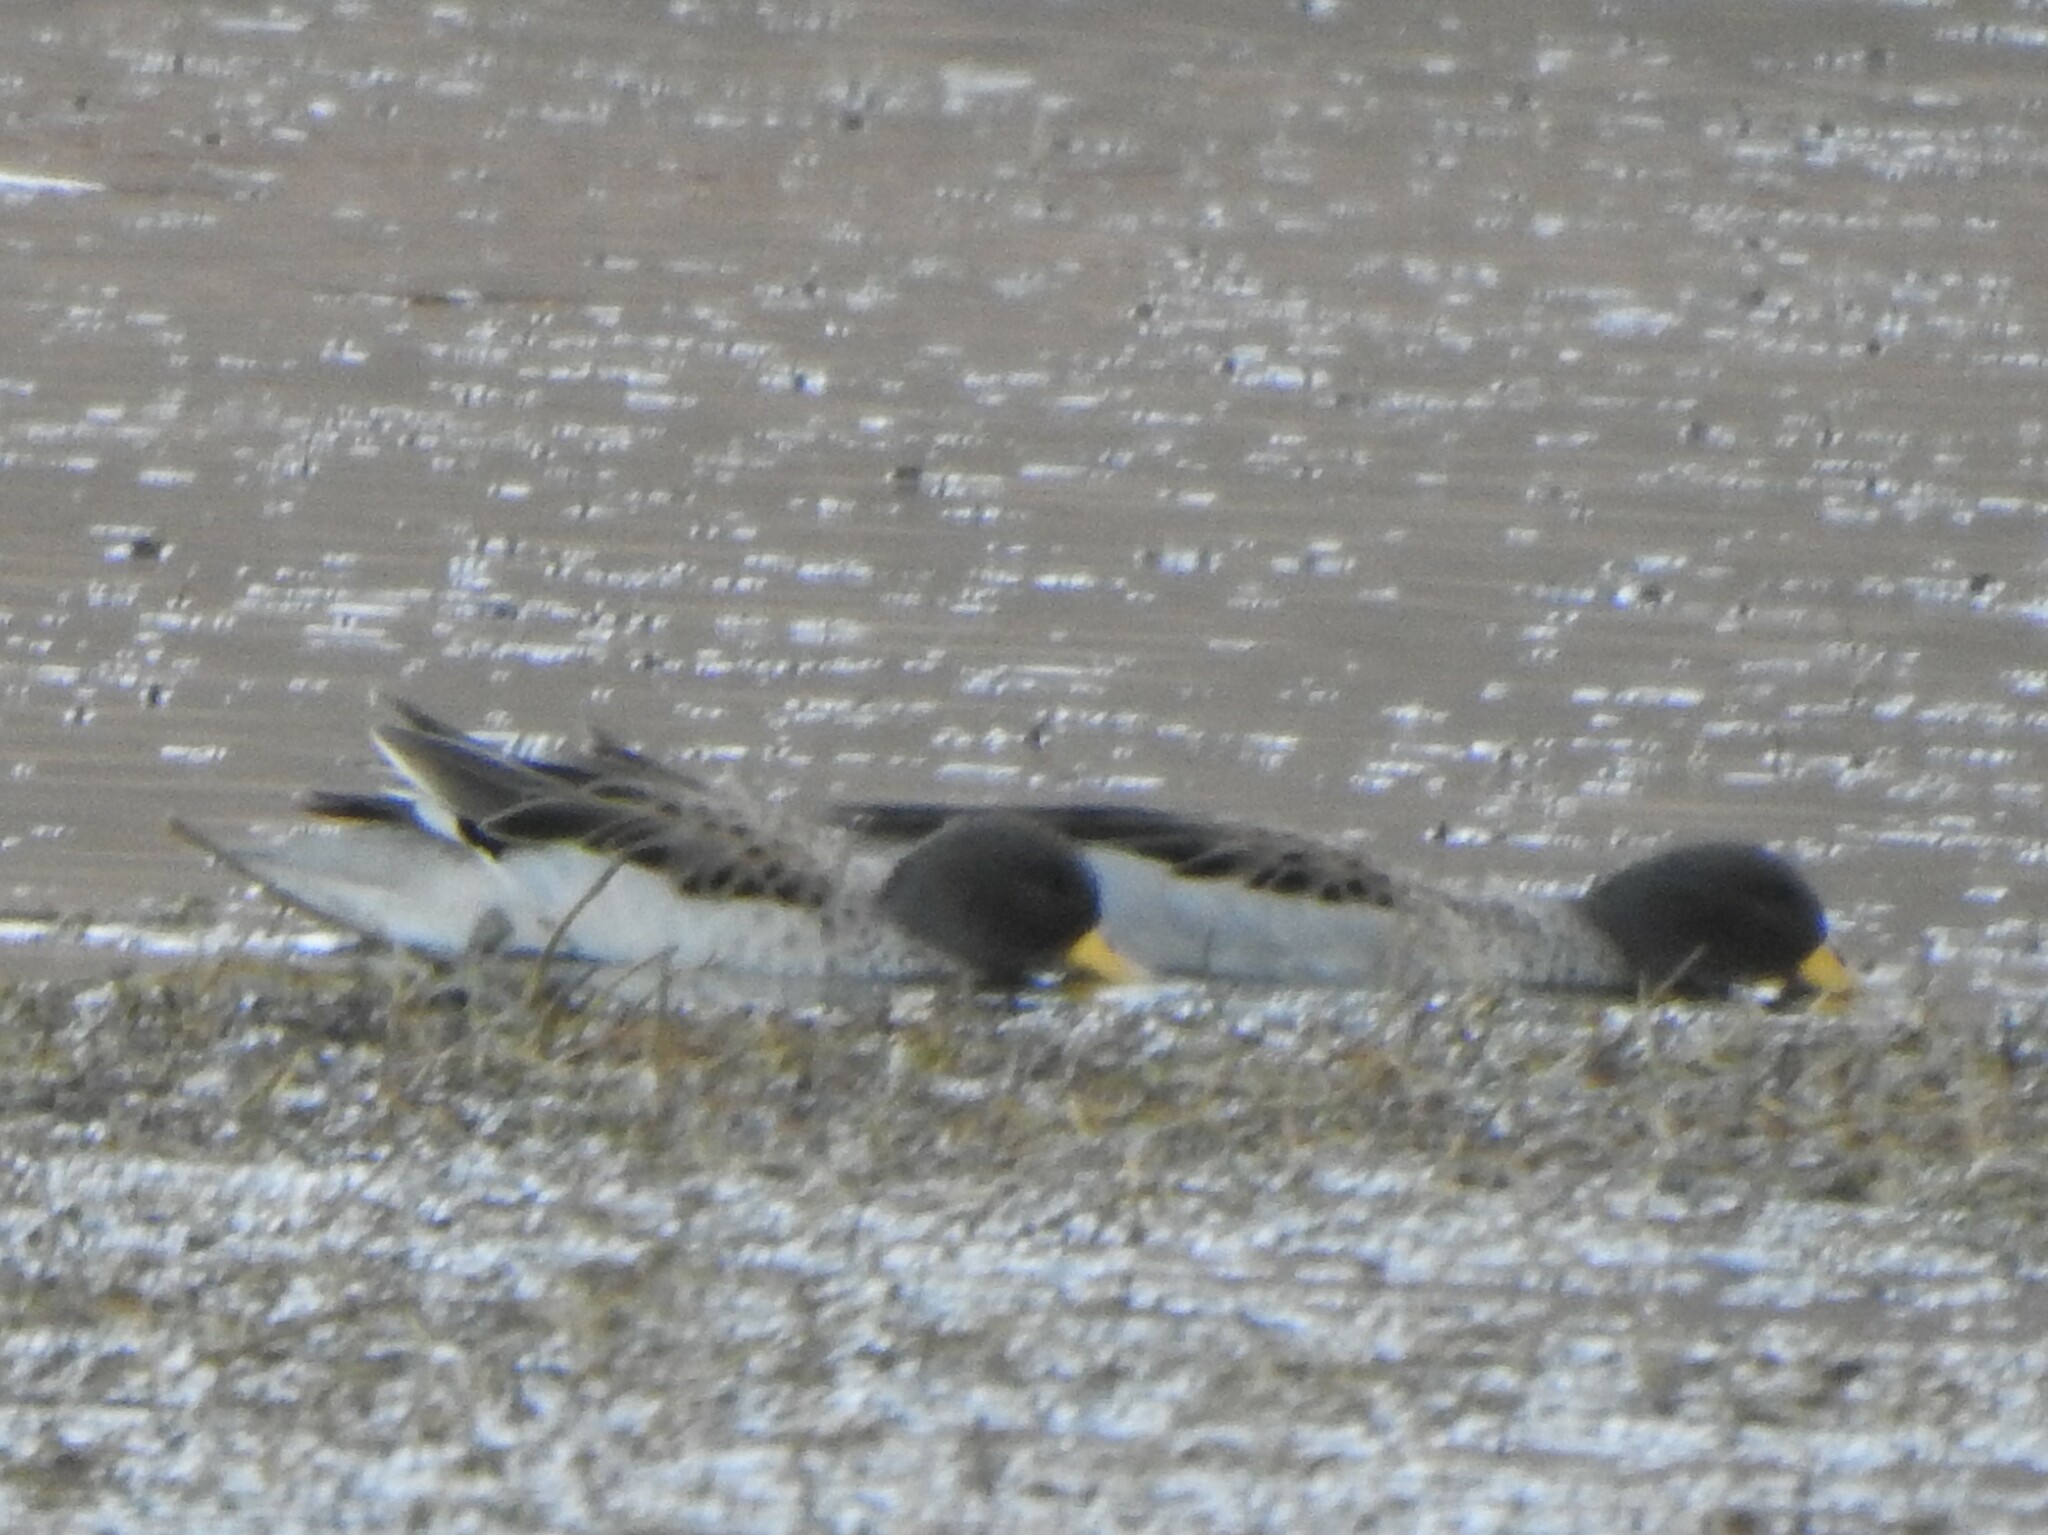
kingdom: Animalia
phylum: Chordata
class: Aves
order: Anseriformes
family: Anatidae
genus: Anas
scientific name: Anas flavirostris
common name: Yellow-billed teal
